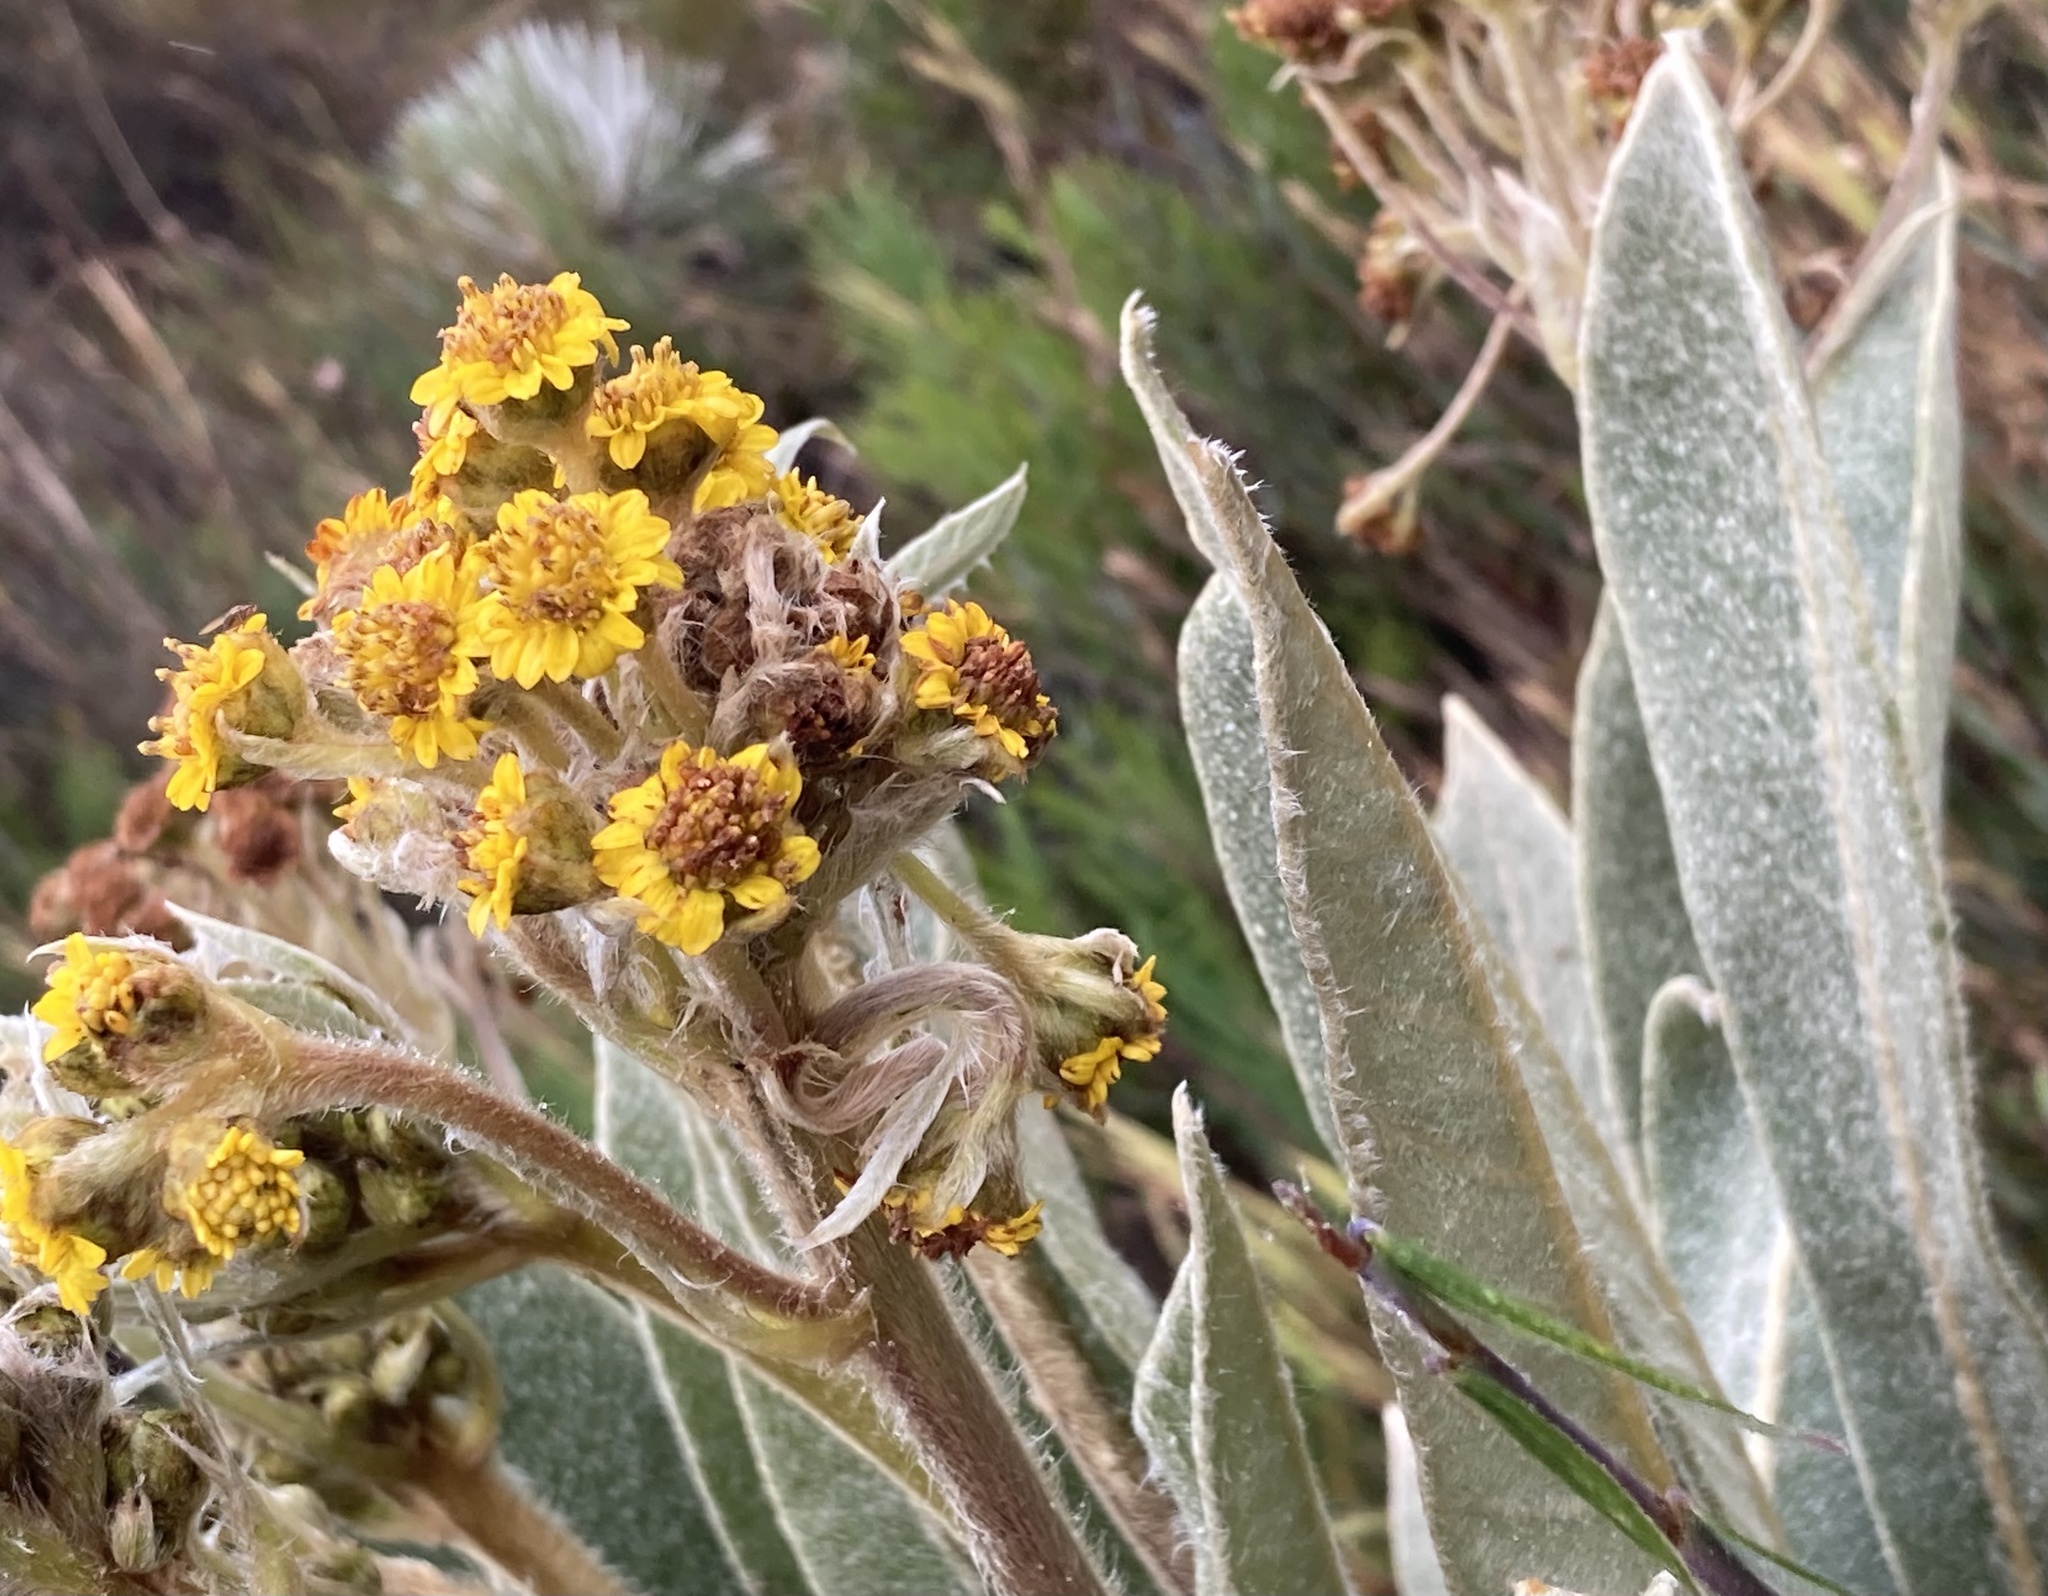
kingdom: Plantae
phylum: Tracheophyta
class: Magnoliopsida
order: Asterales
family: Asteraceae
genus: Espeletia
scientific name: Espeletia corymbosa
